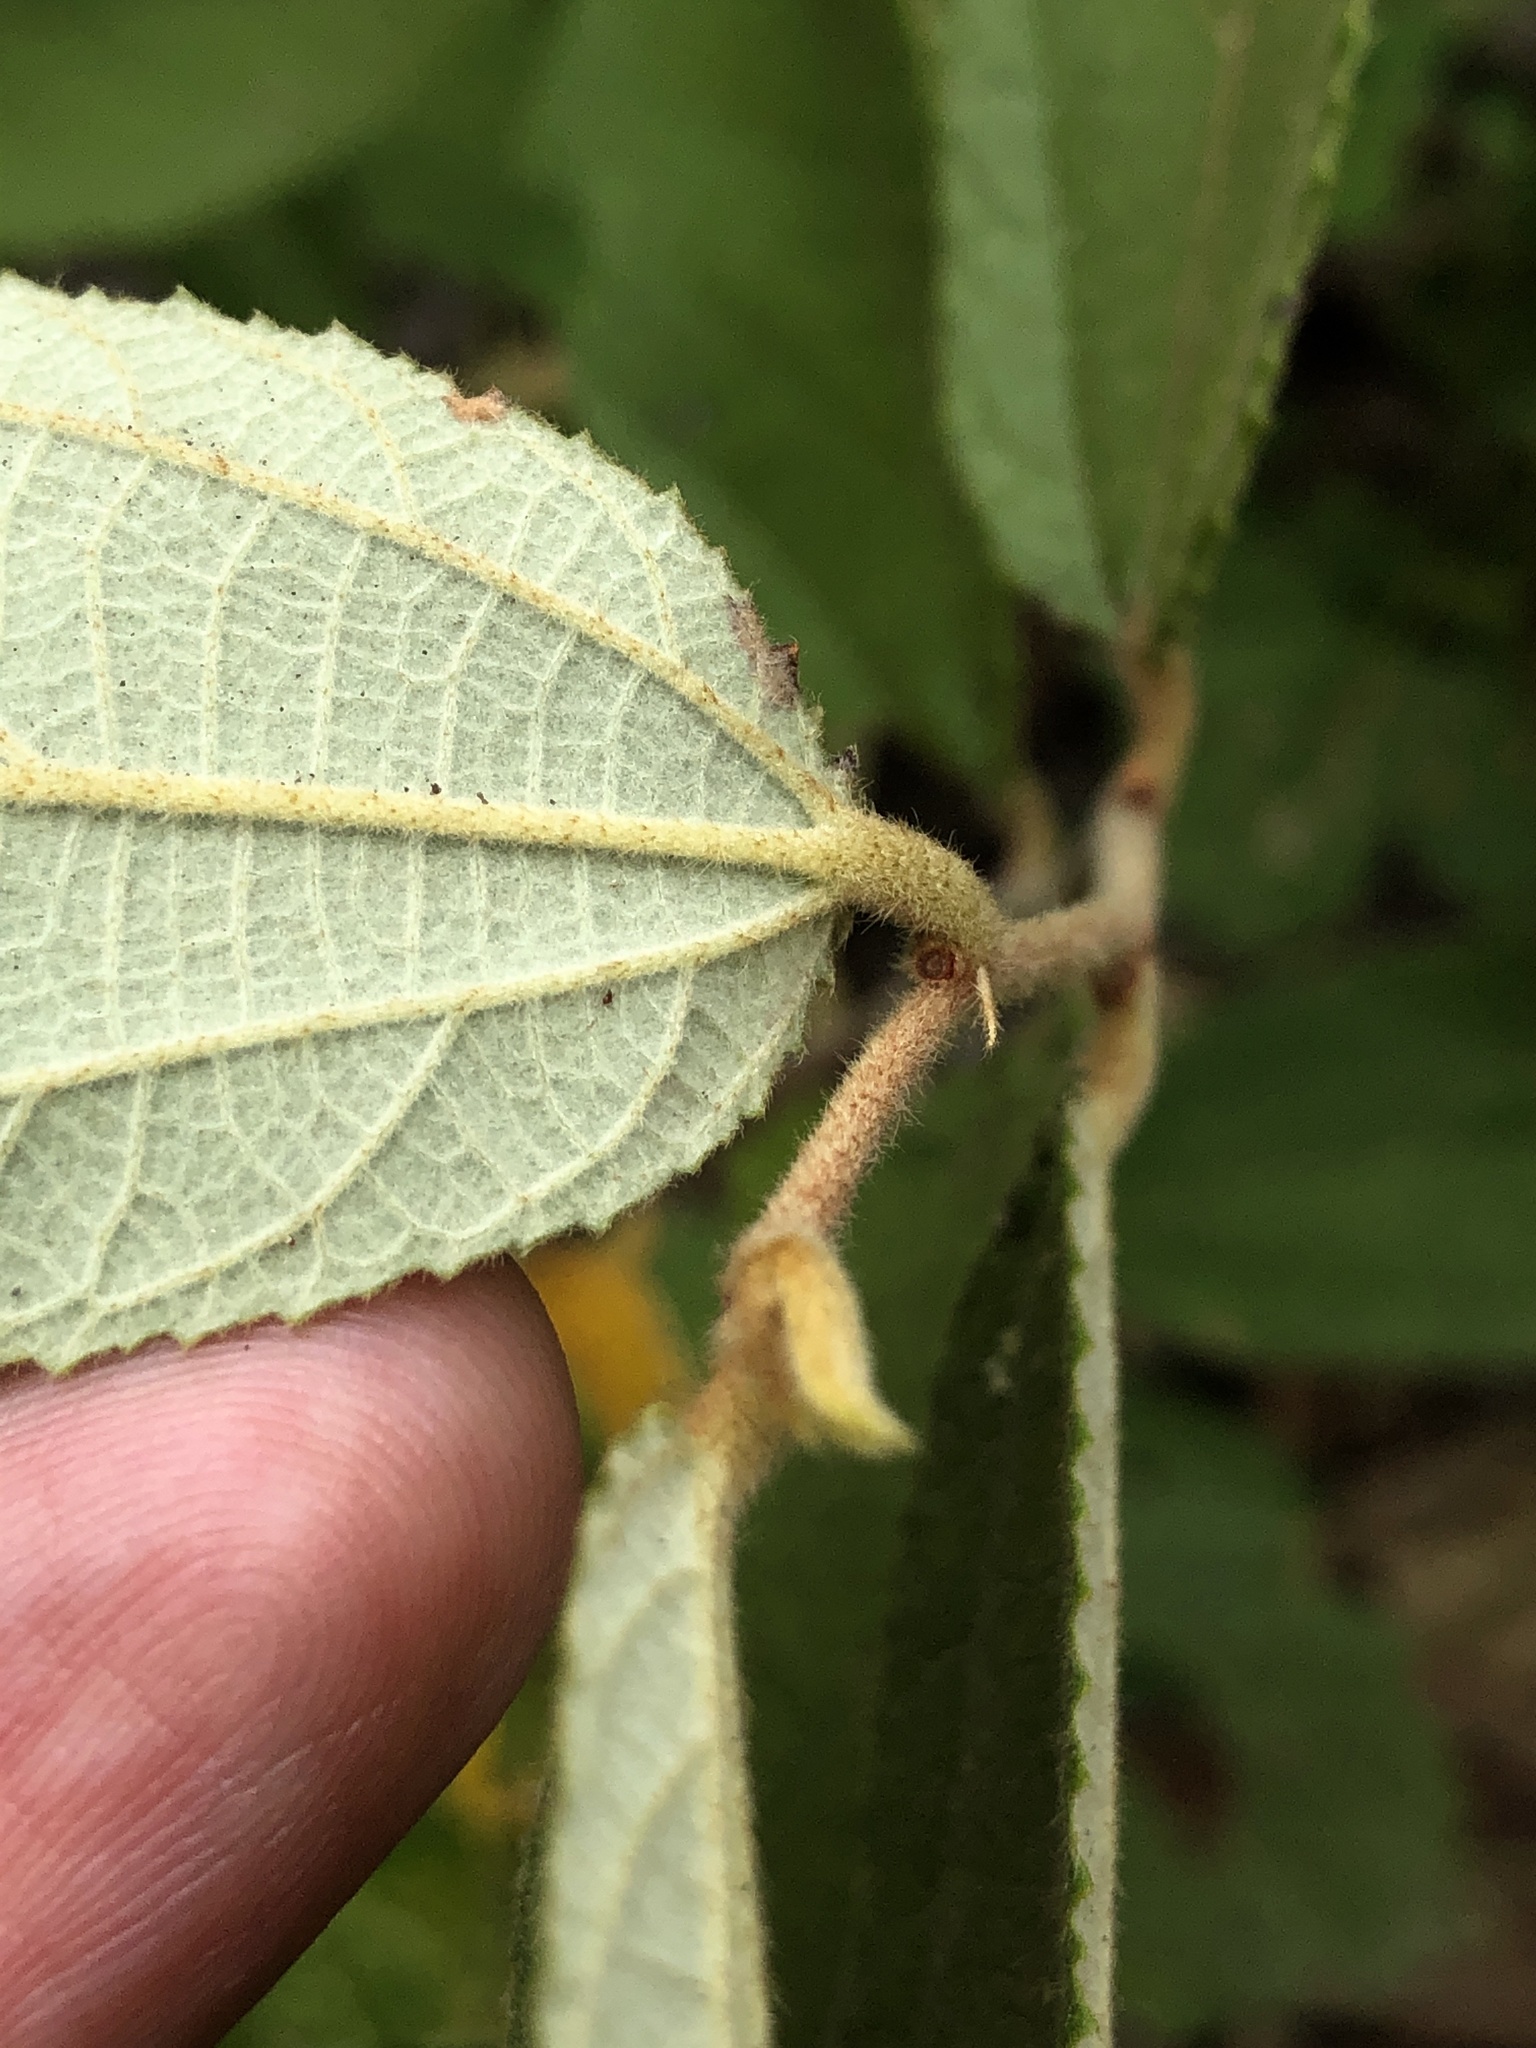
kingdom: Plantae
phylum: Tracheophyta
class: Magnoliopsida
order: Malvales
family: Malvaceae
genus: Grewia
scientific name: Grewia savannicola
